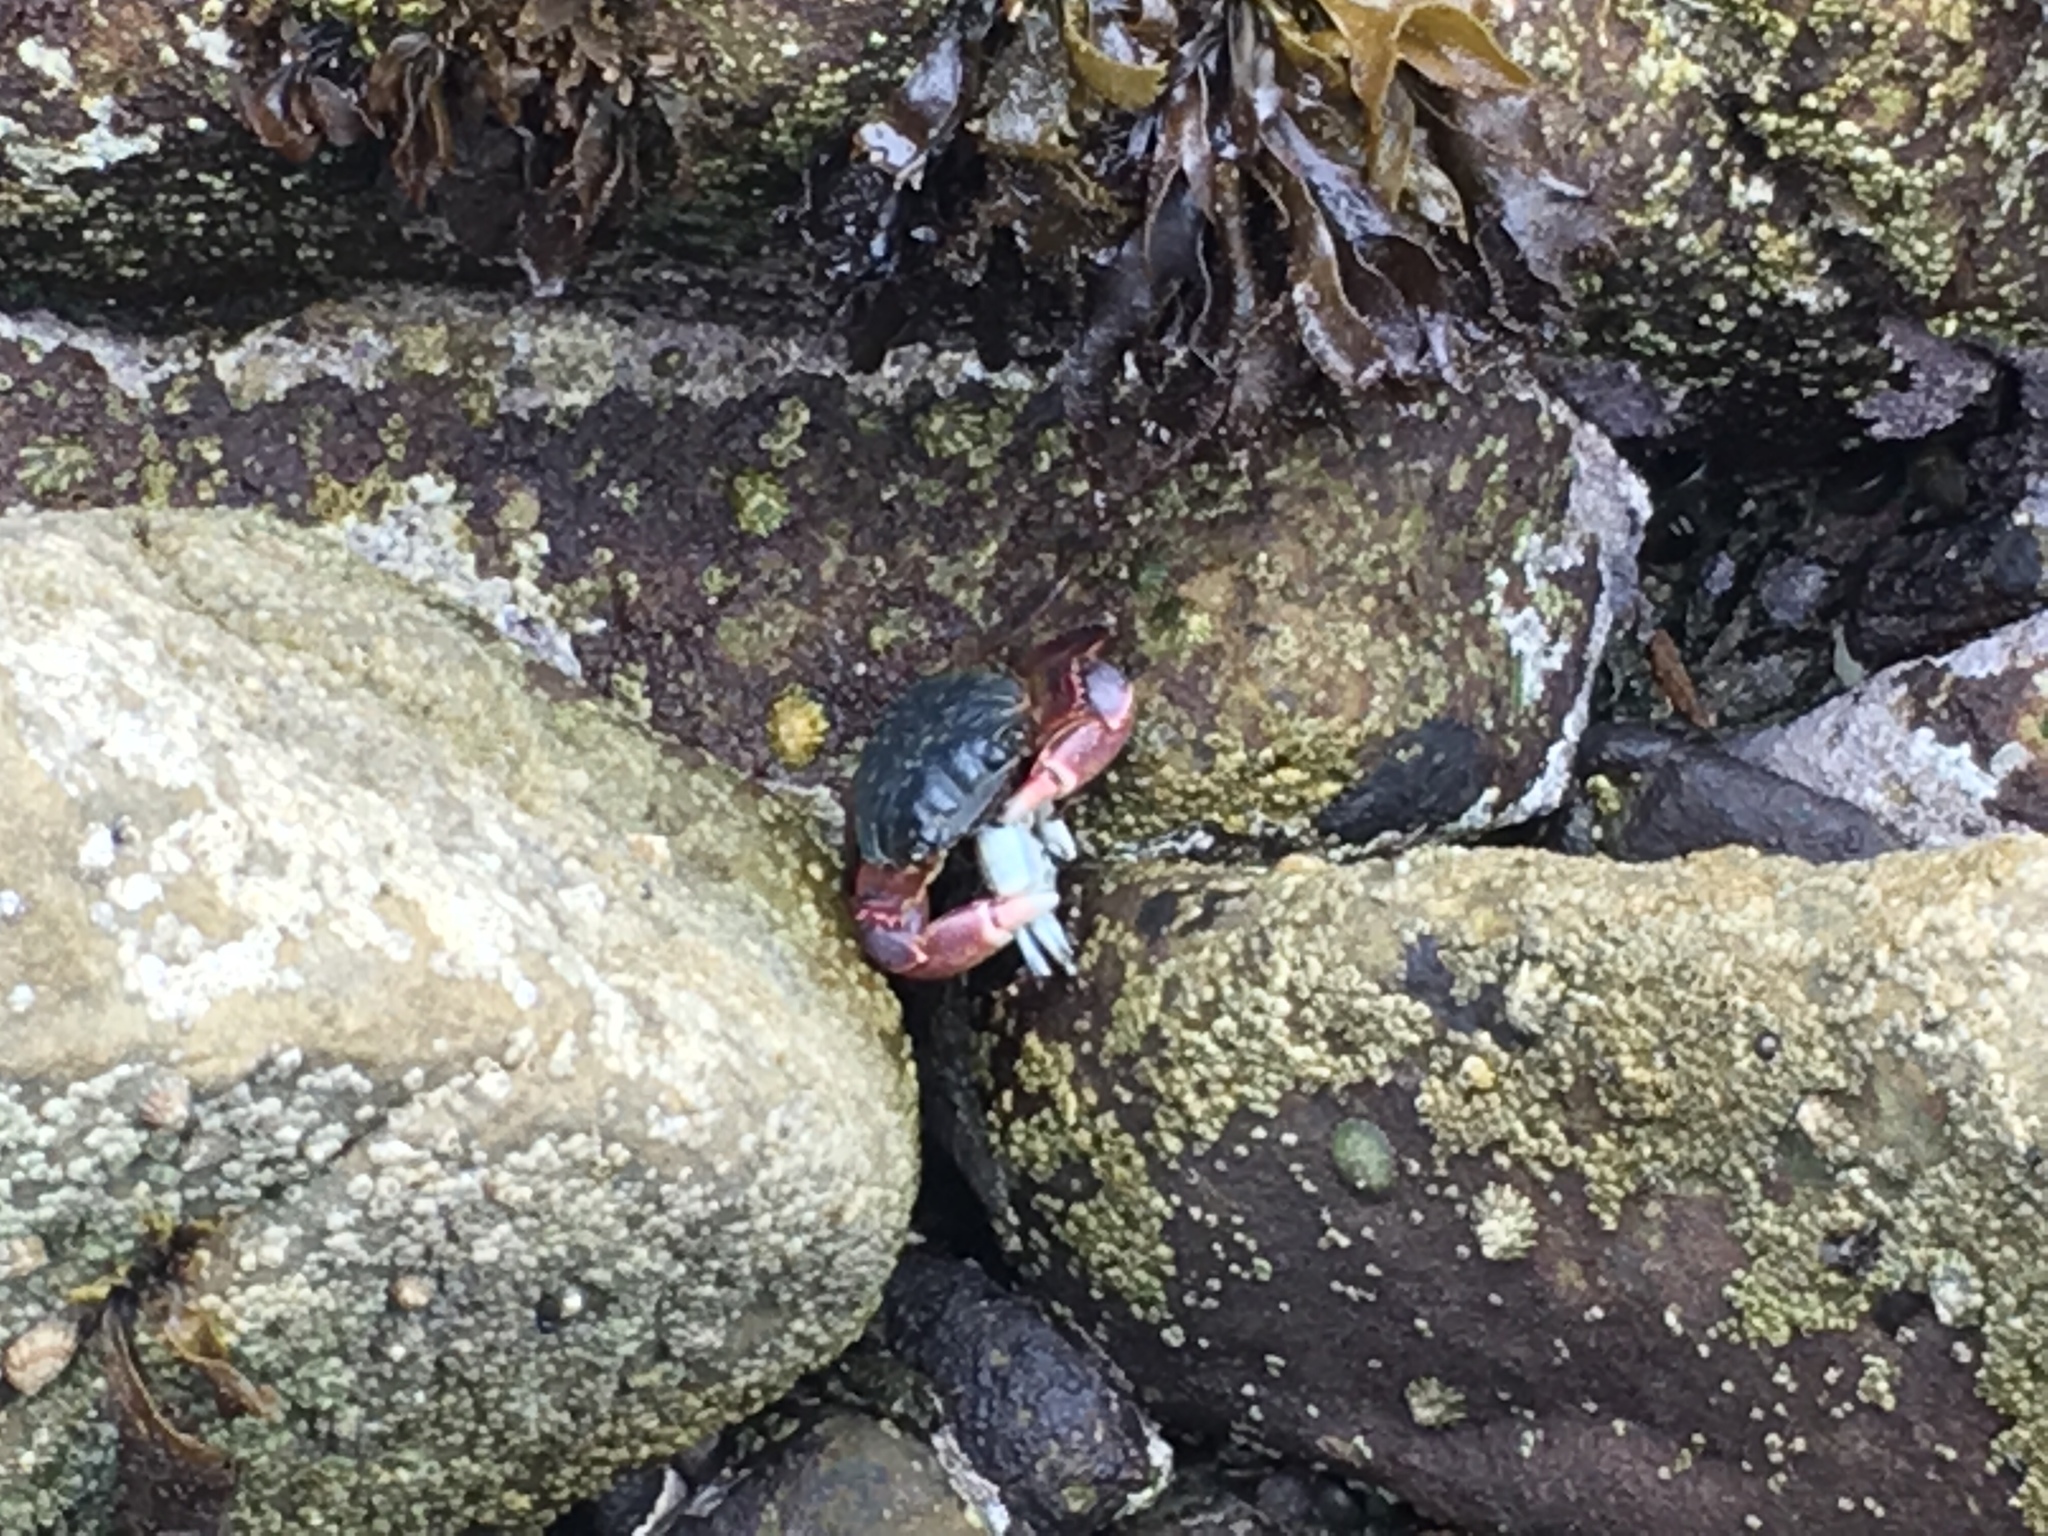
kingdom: Animalia
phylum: Arthropoda
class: Malacostraca
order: Decapoda
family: Grapsidae
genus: Pachygrapsus
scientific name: Pachygrapsus crassipes
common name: Striped shore crab
